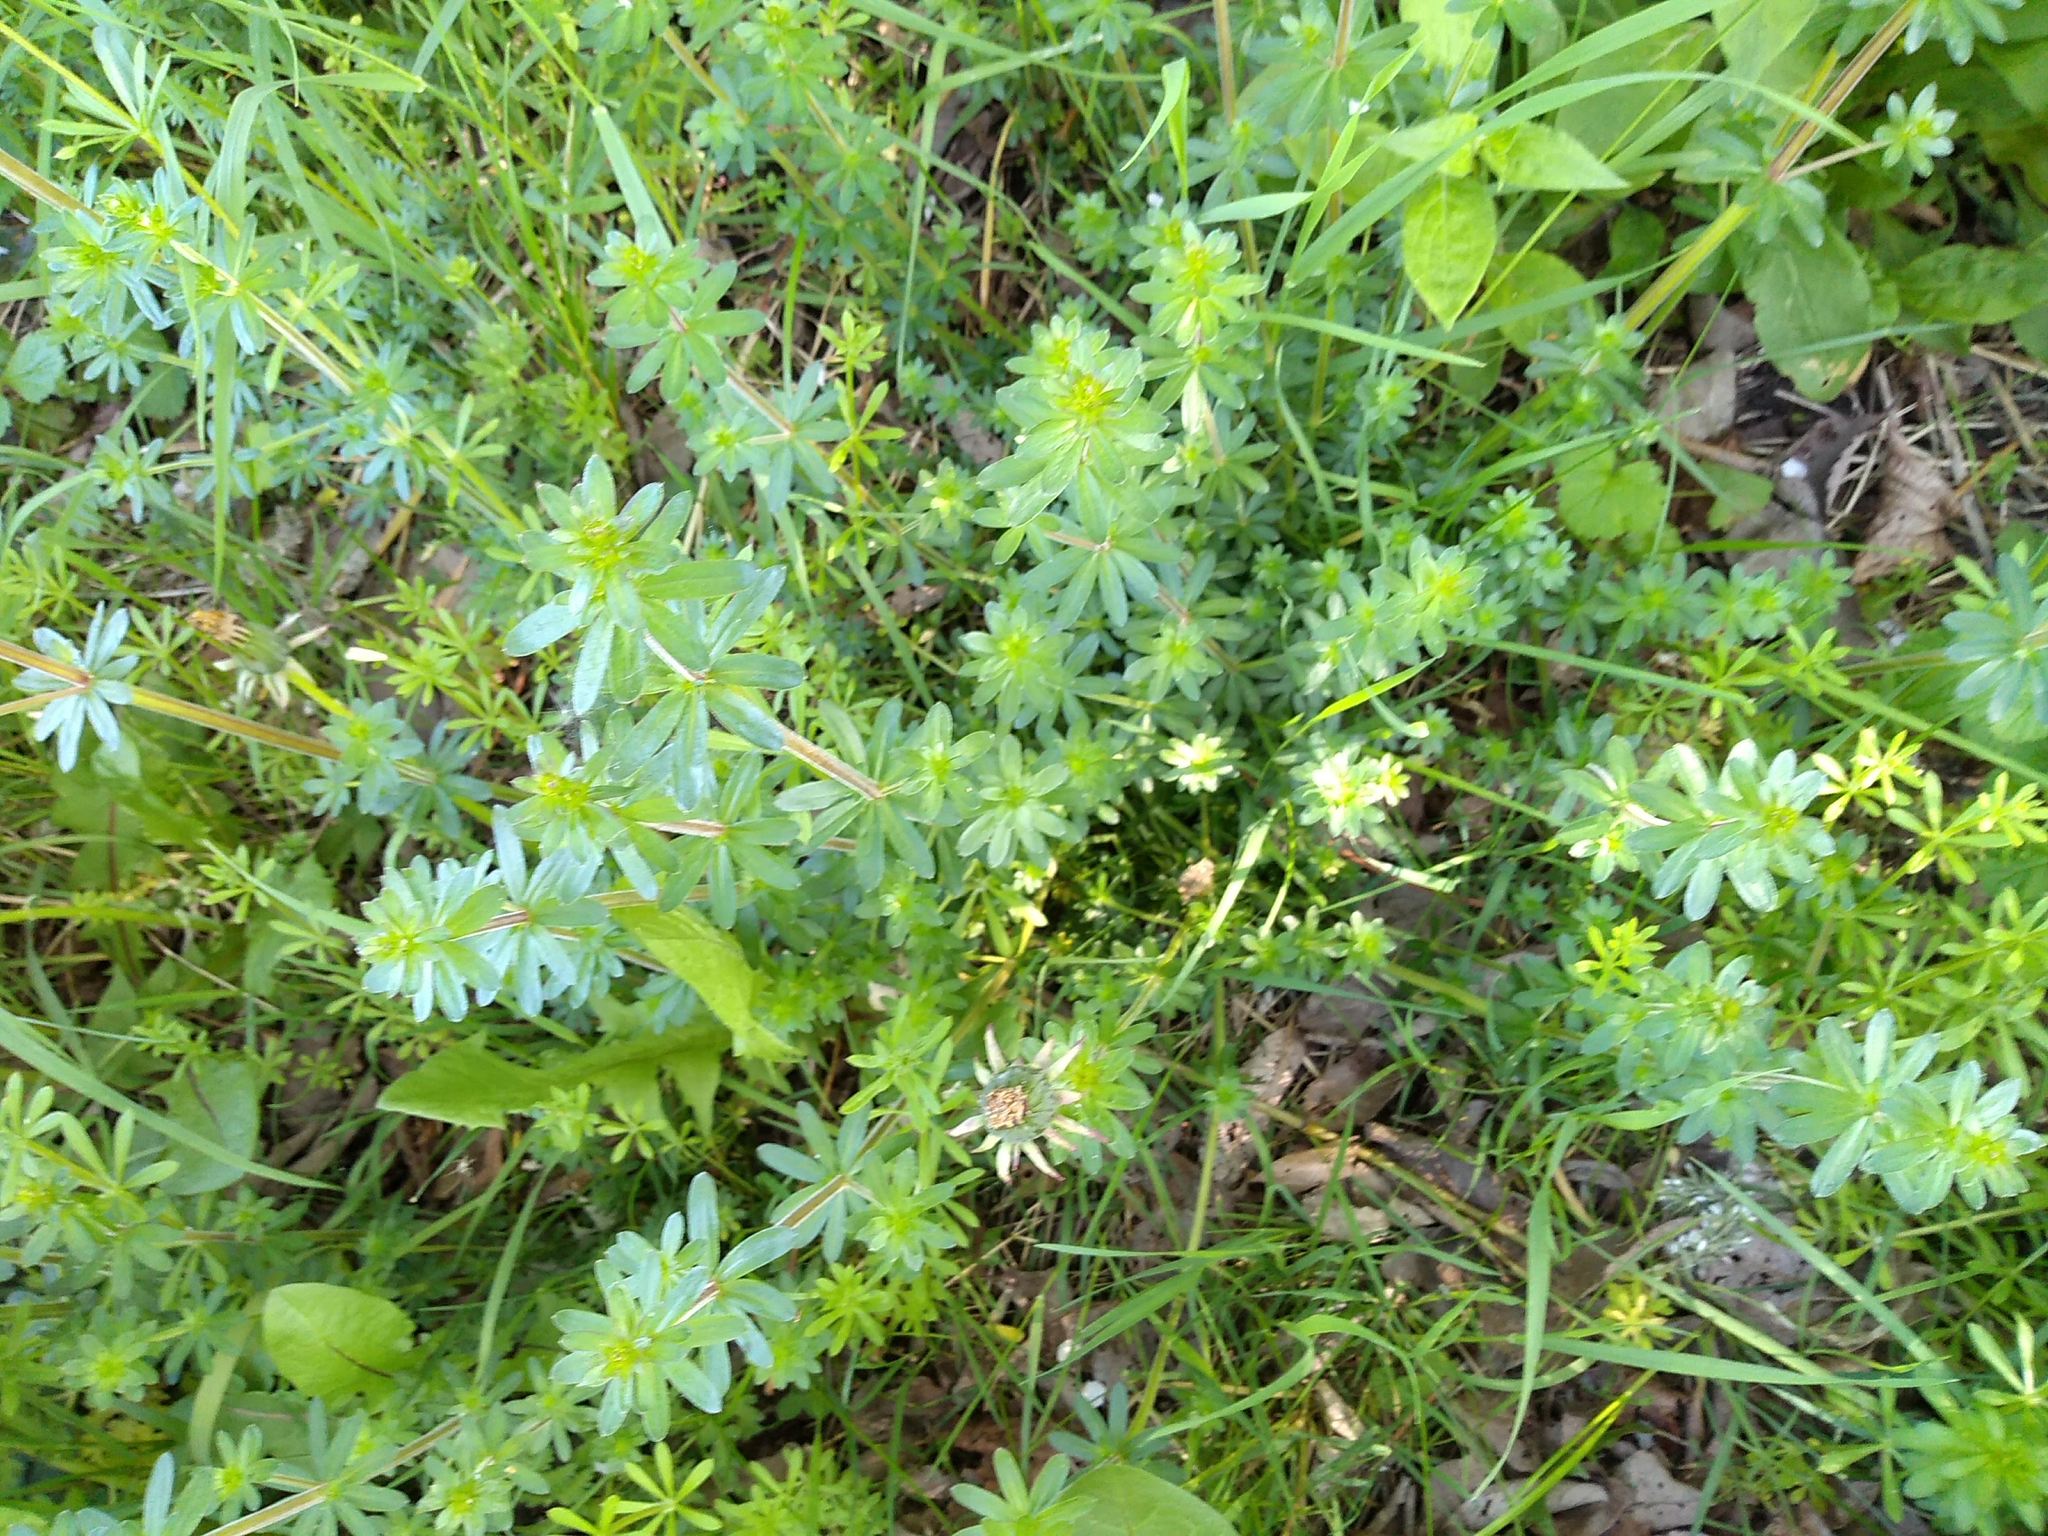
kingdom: Plantae
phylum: Tracheophyta
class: Magnoliopsida
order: Gentianales
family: Rubiaceae
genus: Galium
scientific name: Galium mollugo
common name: Hedge bedstraw
